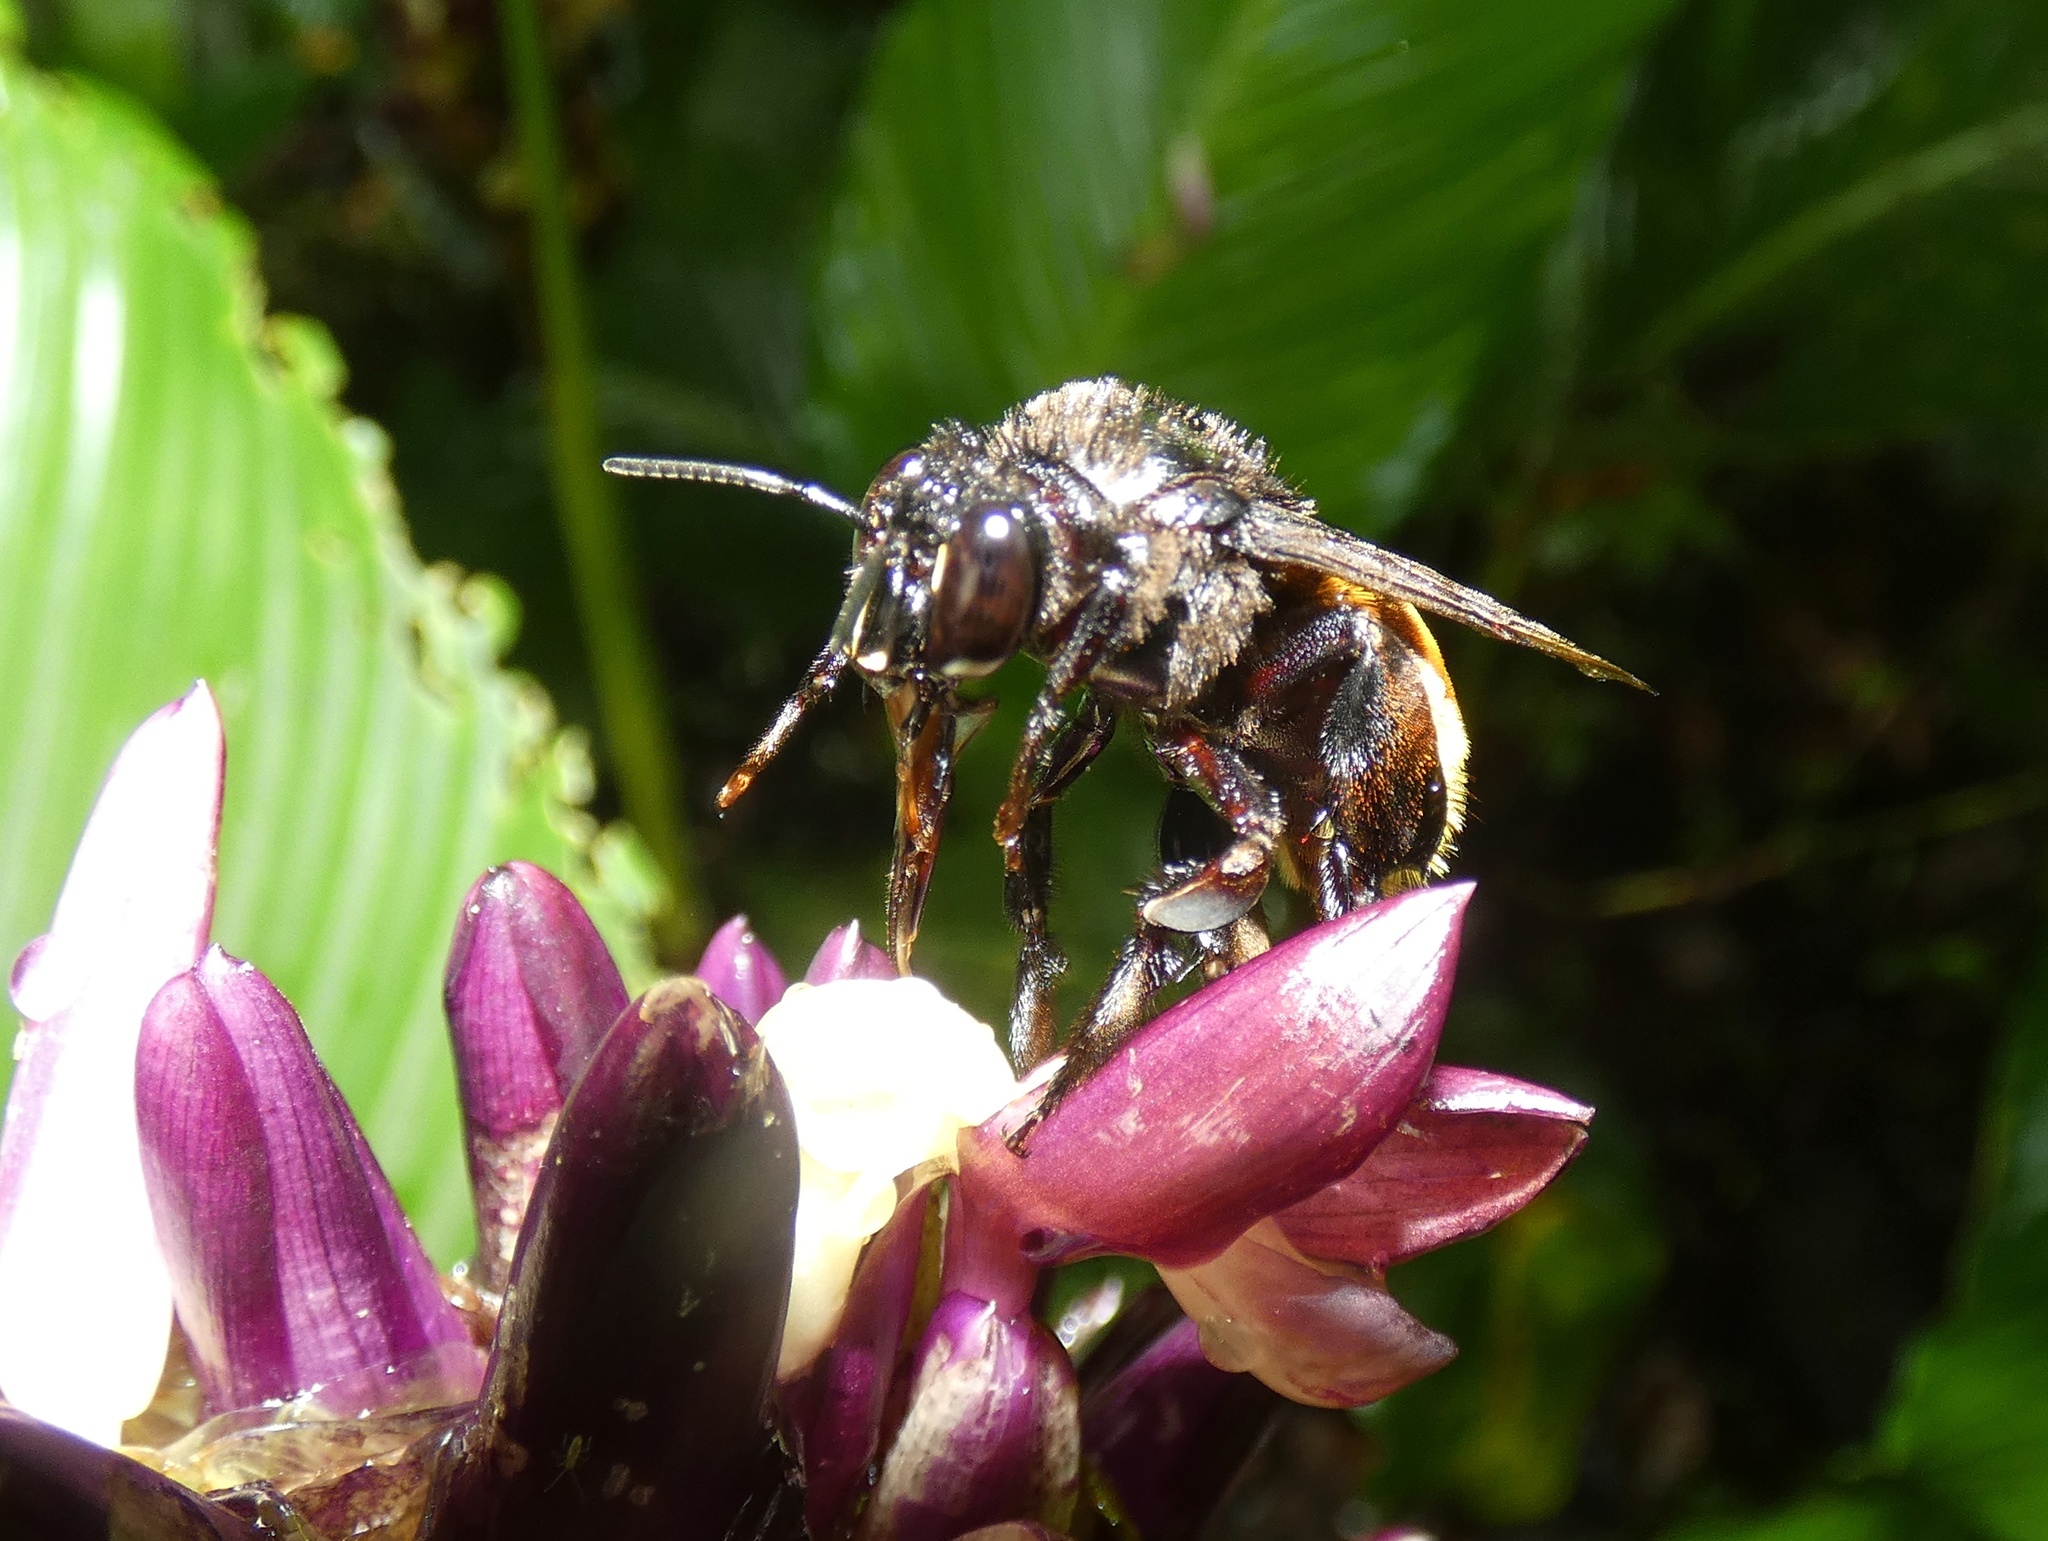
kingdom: Animalia
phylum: Arthropoda
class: Insecta
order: Hymenoptera
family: Apidae
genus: Eulaema
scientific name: Eulaema cingulata
